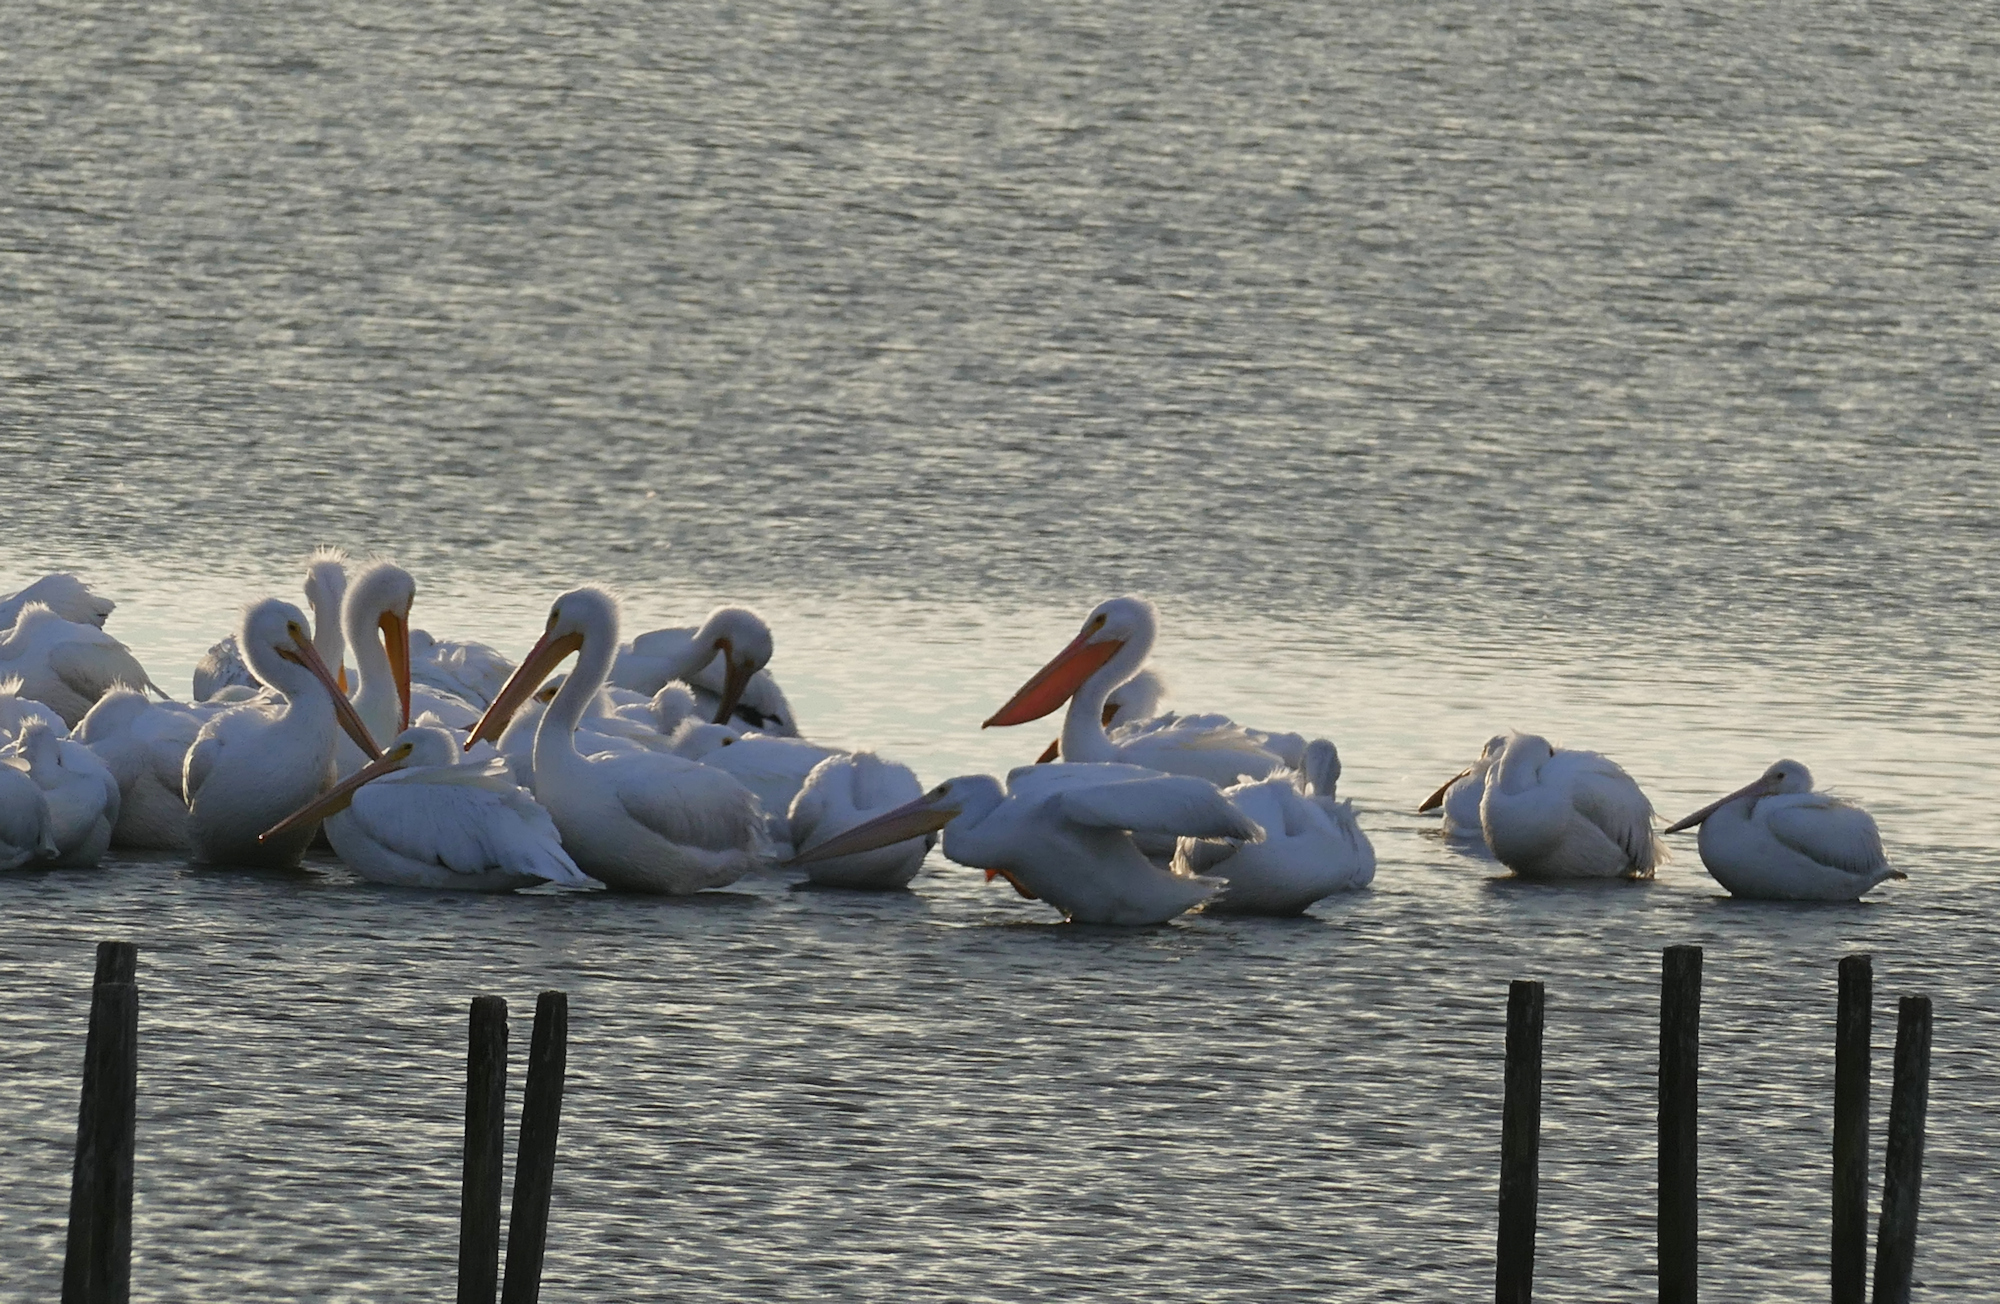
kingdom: Animalia
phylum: Chordata
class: Aves
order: Pelecaniformes
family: Pelecanidae
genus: Pelecanus
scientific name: Pelecanus erythrorhynchos
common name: American white pelican
